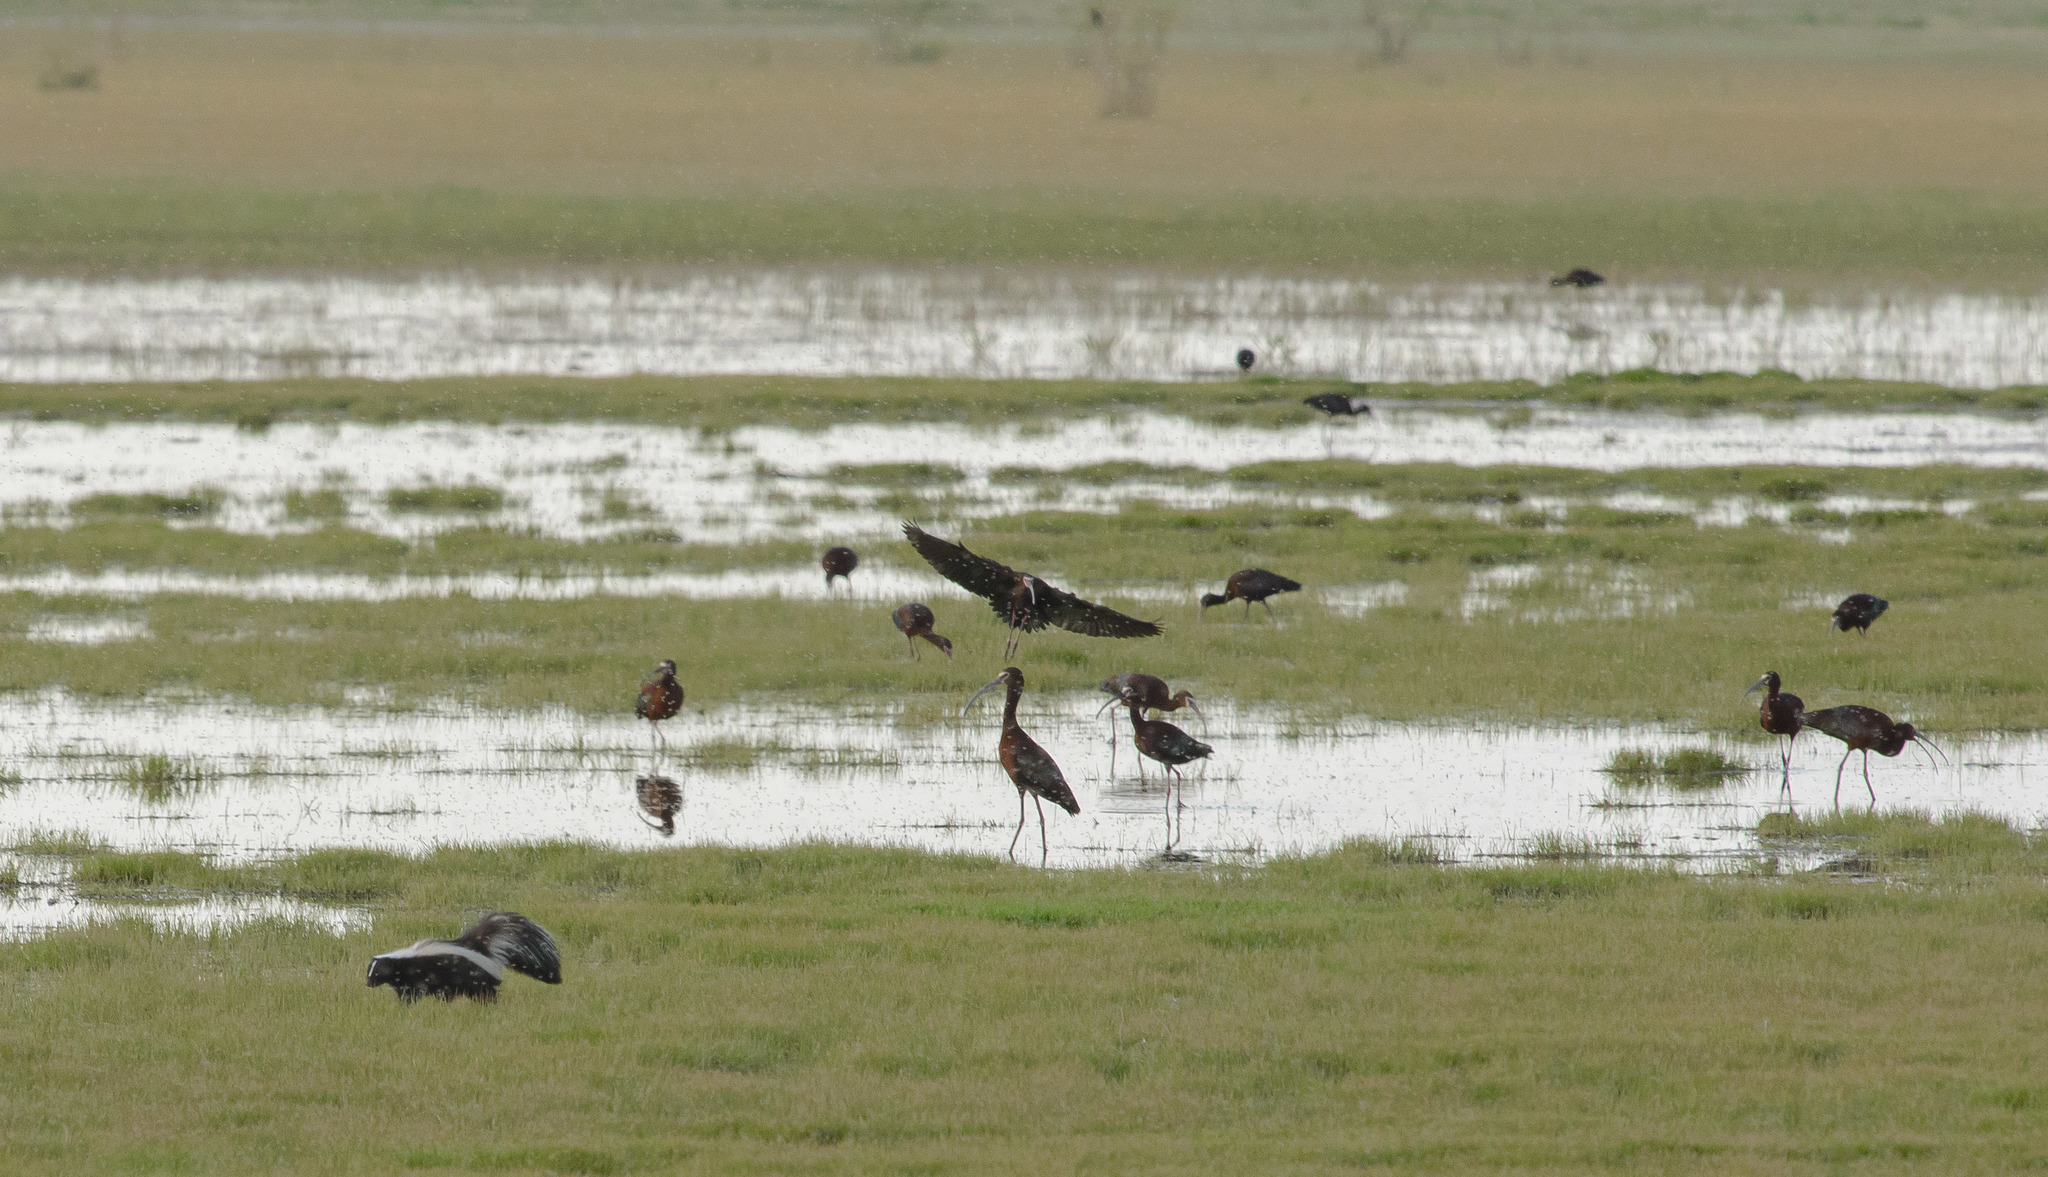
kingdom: Animalia
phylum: Chordata
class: Mammalia
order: Carnivora
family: Mephitidae
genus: Mephitis
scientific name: Mephitis mephitis
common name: Striped skunk
